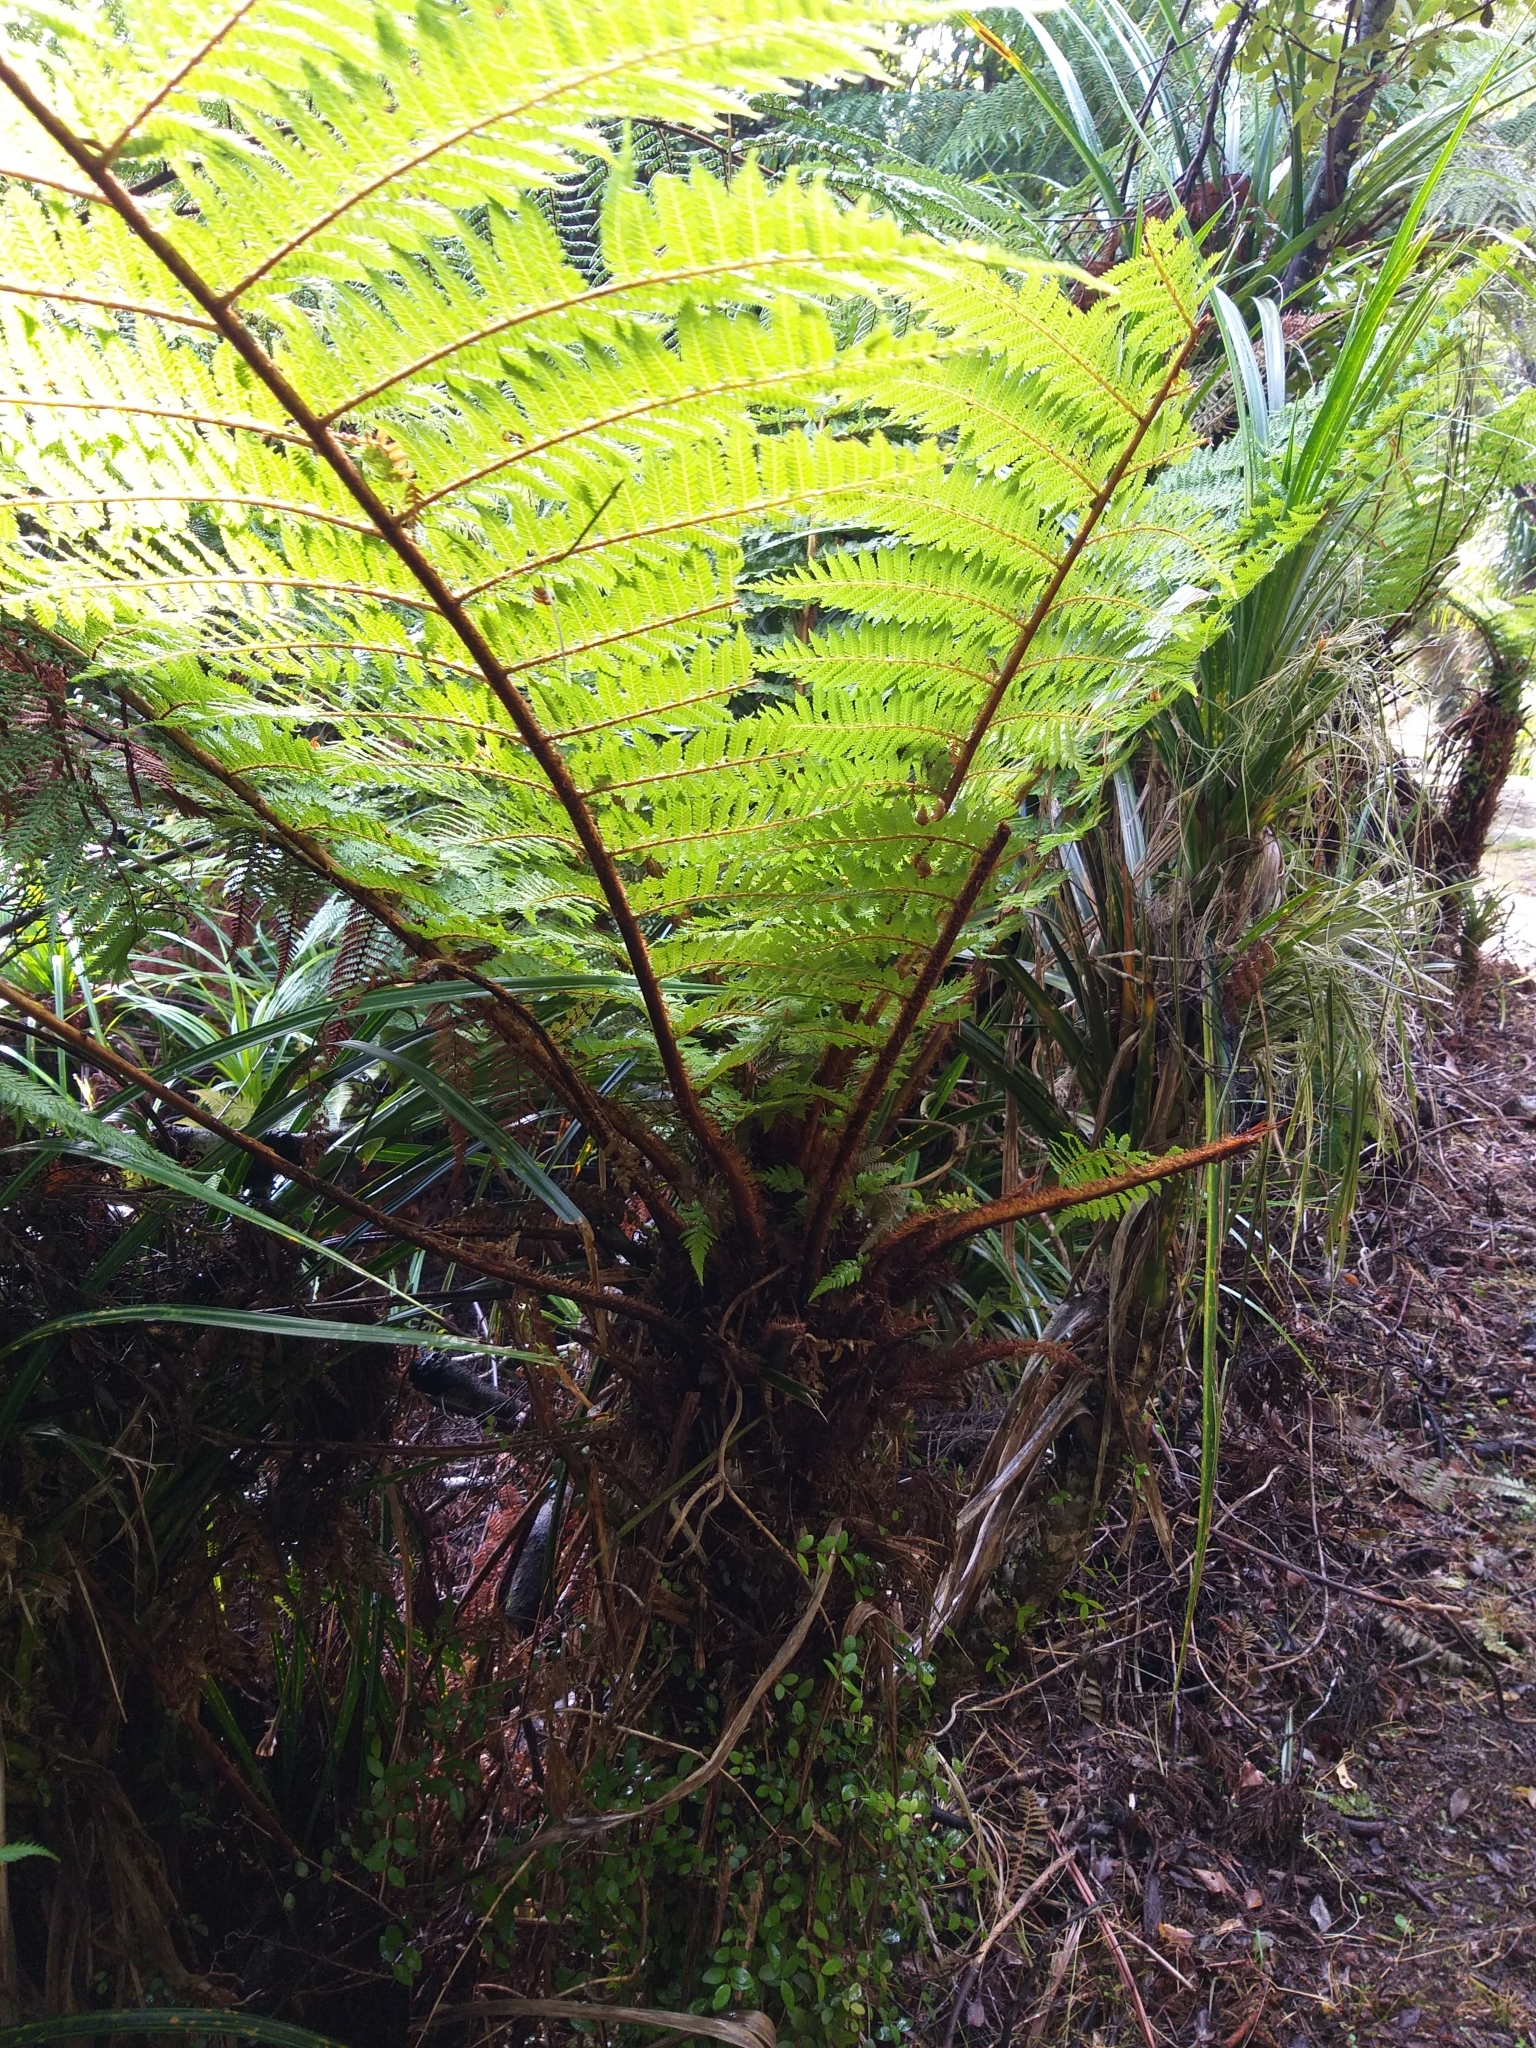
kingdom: Plantae
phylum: Tracheophyta
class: Polypodiopsida
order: Cyatheales
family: Cyatheaceae
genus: Alsophila
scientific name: Alsophila smithii
